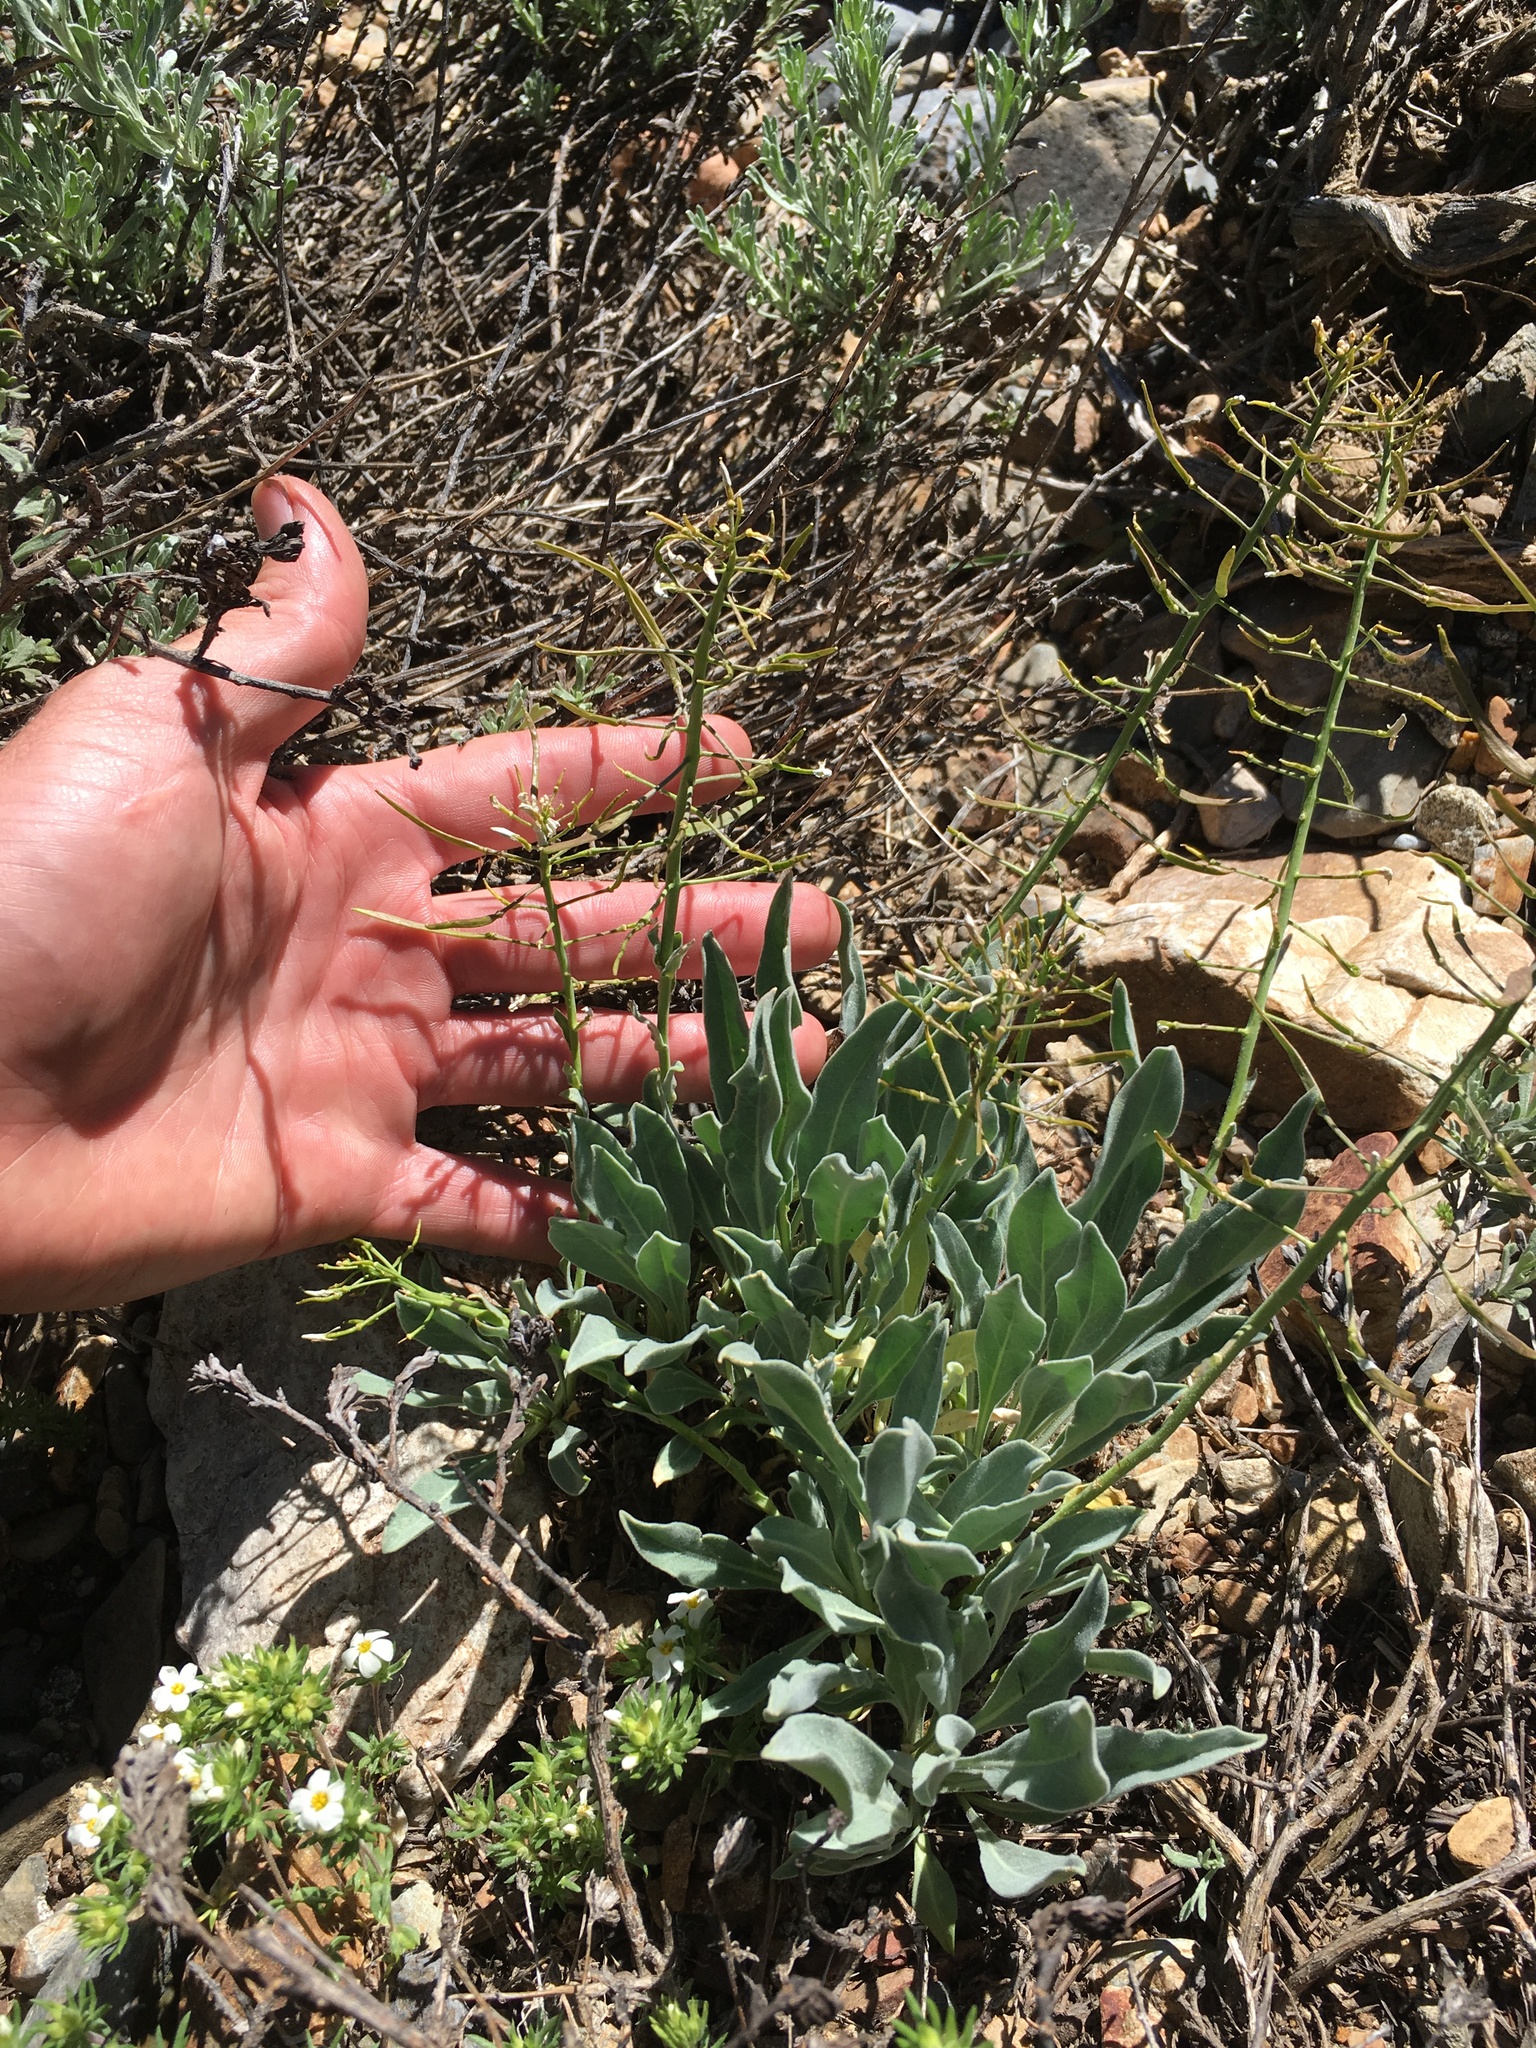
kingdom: Plantae
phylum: Tracheophyta
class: Magnoliopsida
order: Brassicales
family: Brassicaceae
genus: Phoenicaulis
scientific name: Phoenicaulis cheiranthoides
